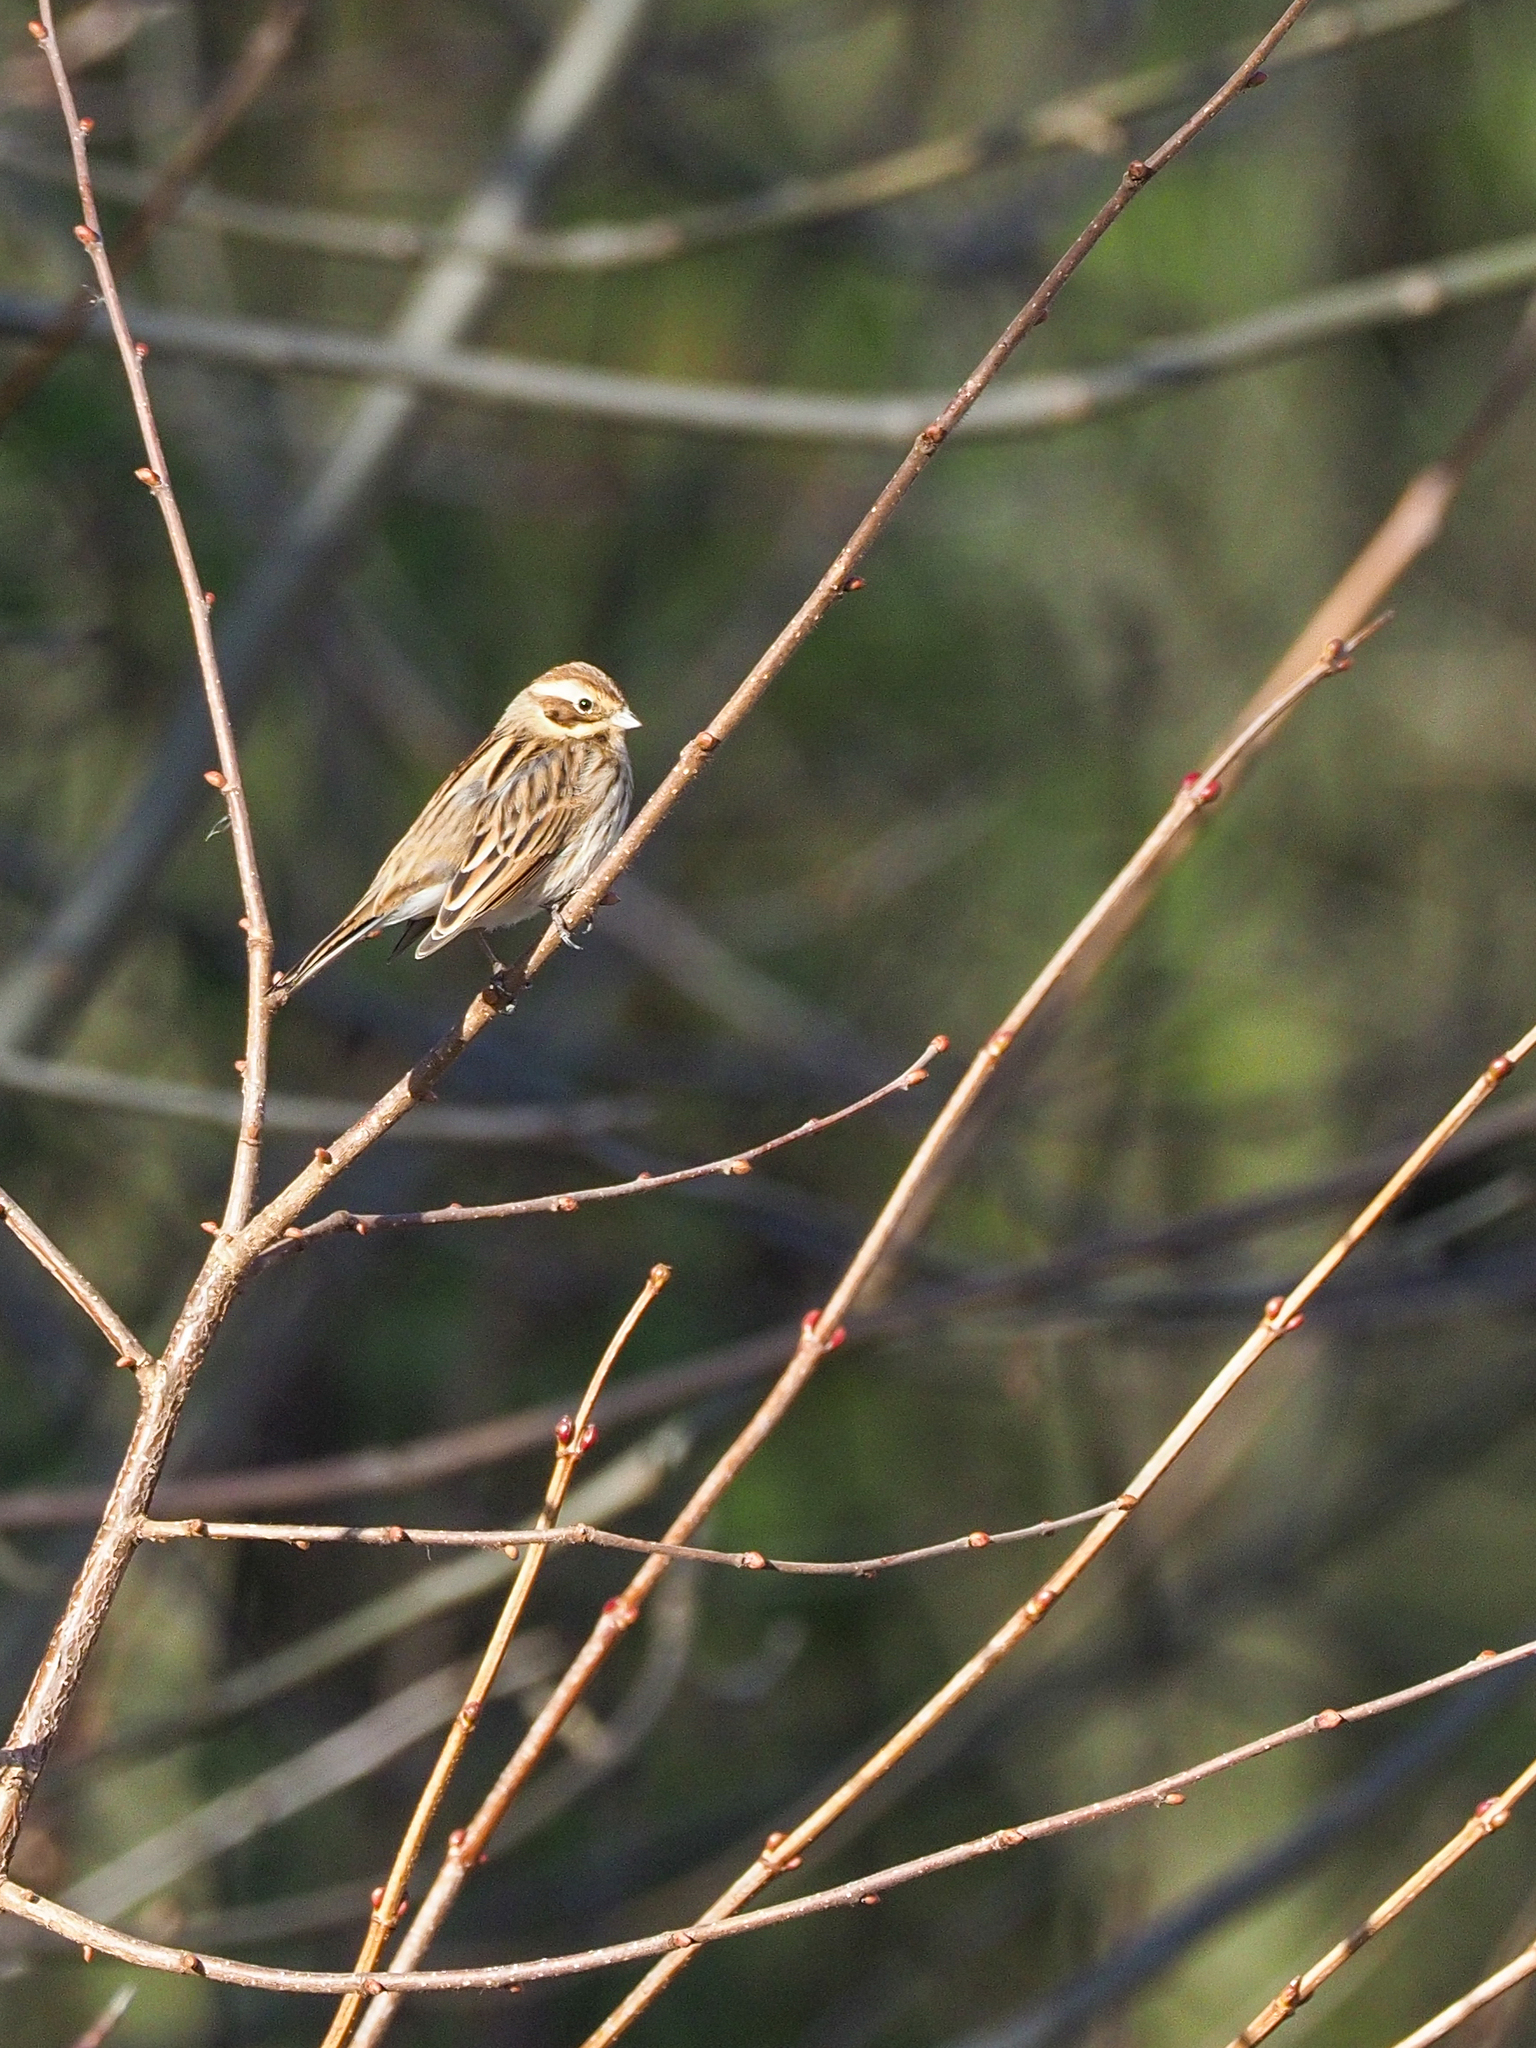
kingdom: Animalia
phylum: Chordata
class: Aves
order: Passeriformes
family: Emberizidae
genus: Emberiza
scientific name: Emberiza schoeniclus
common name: Reed bunting
